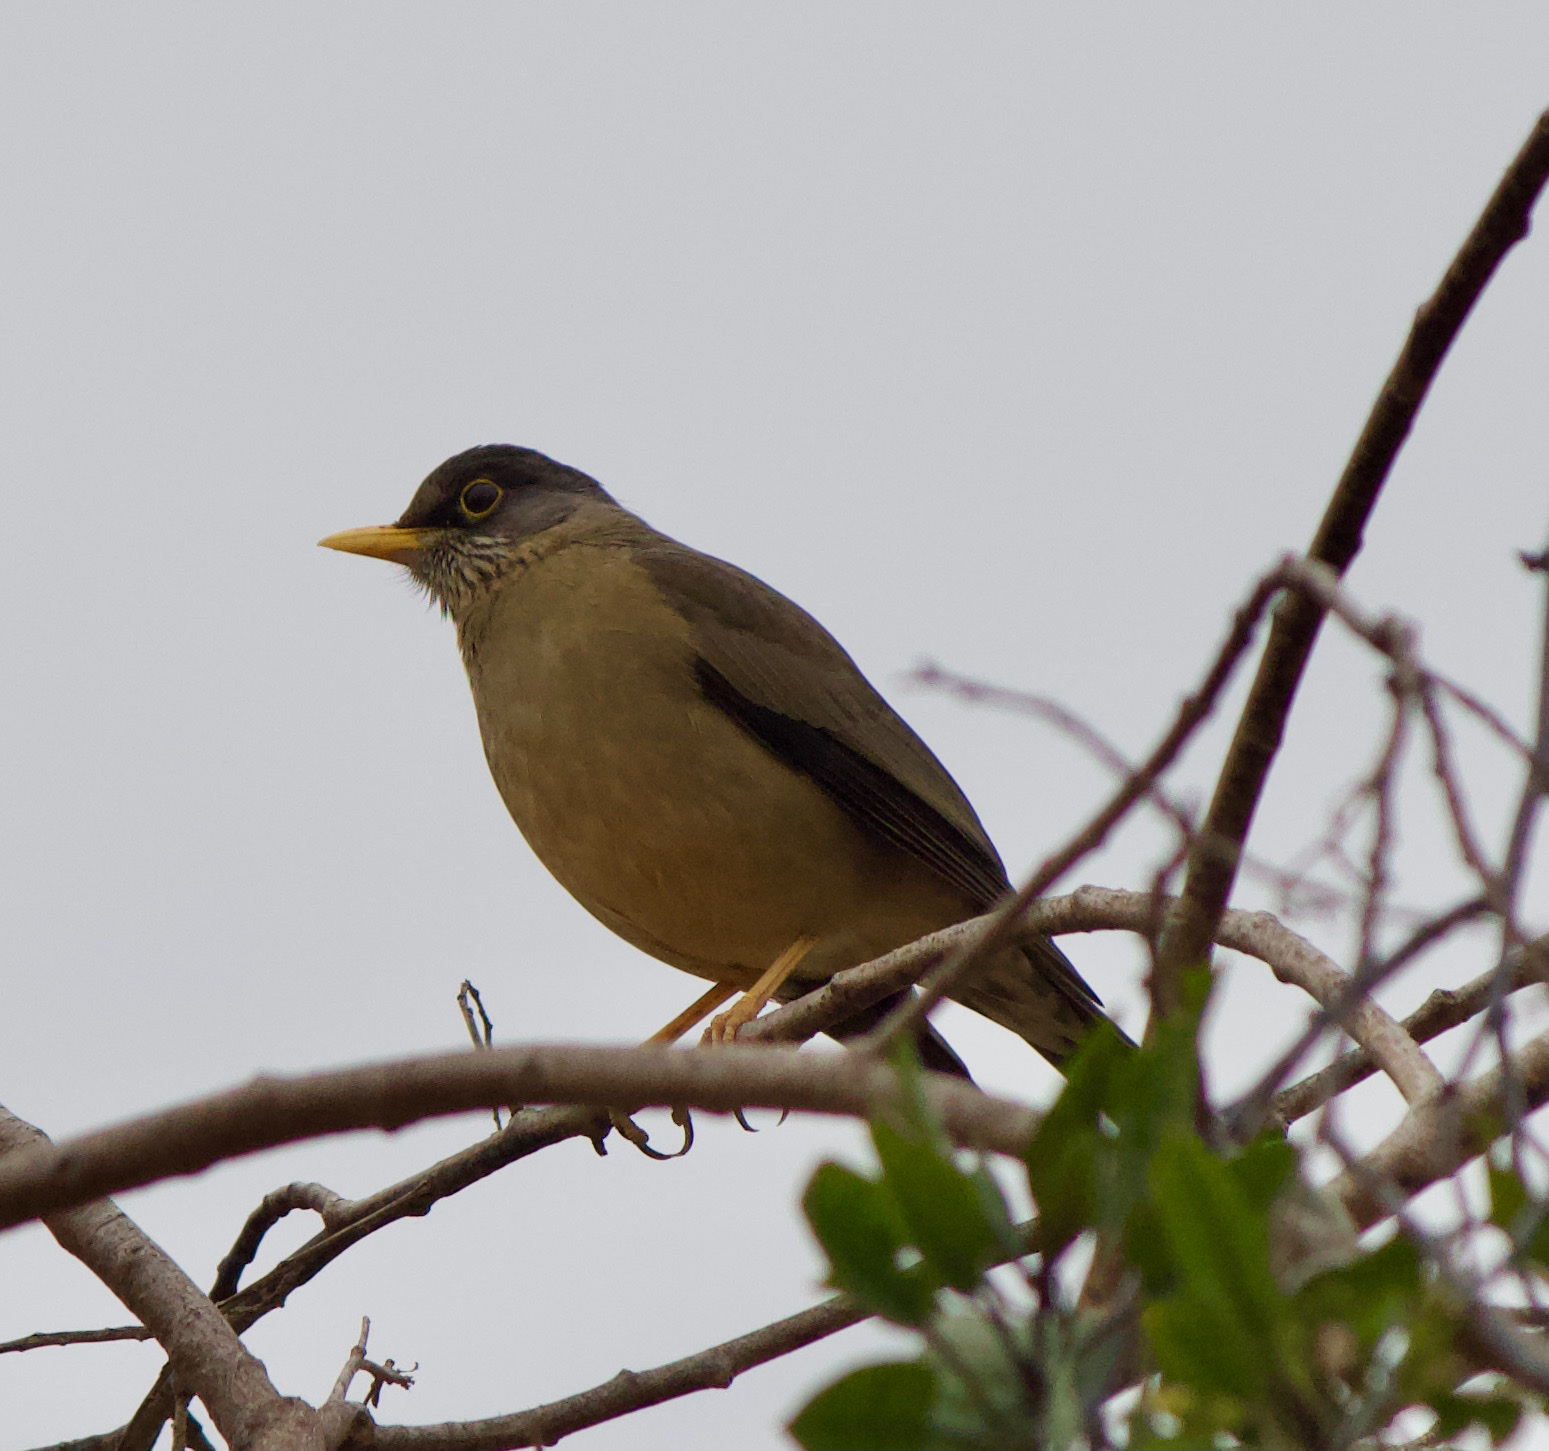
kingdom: Animalia
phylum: Chordata
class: Aves
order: Passeriformes
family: Turdidae
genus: Turdus
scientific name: Turdus falcklandii
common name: Austral thrush
